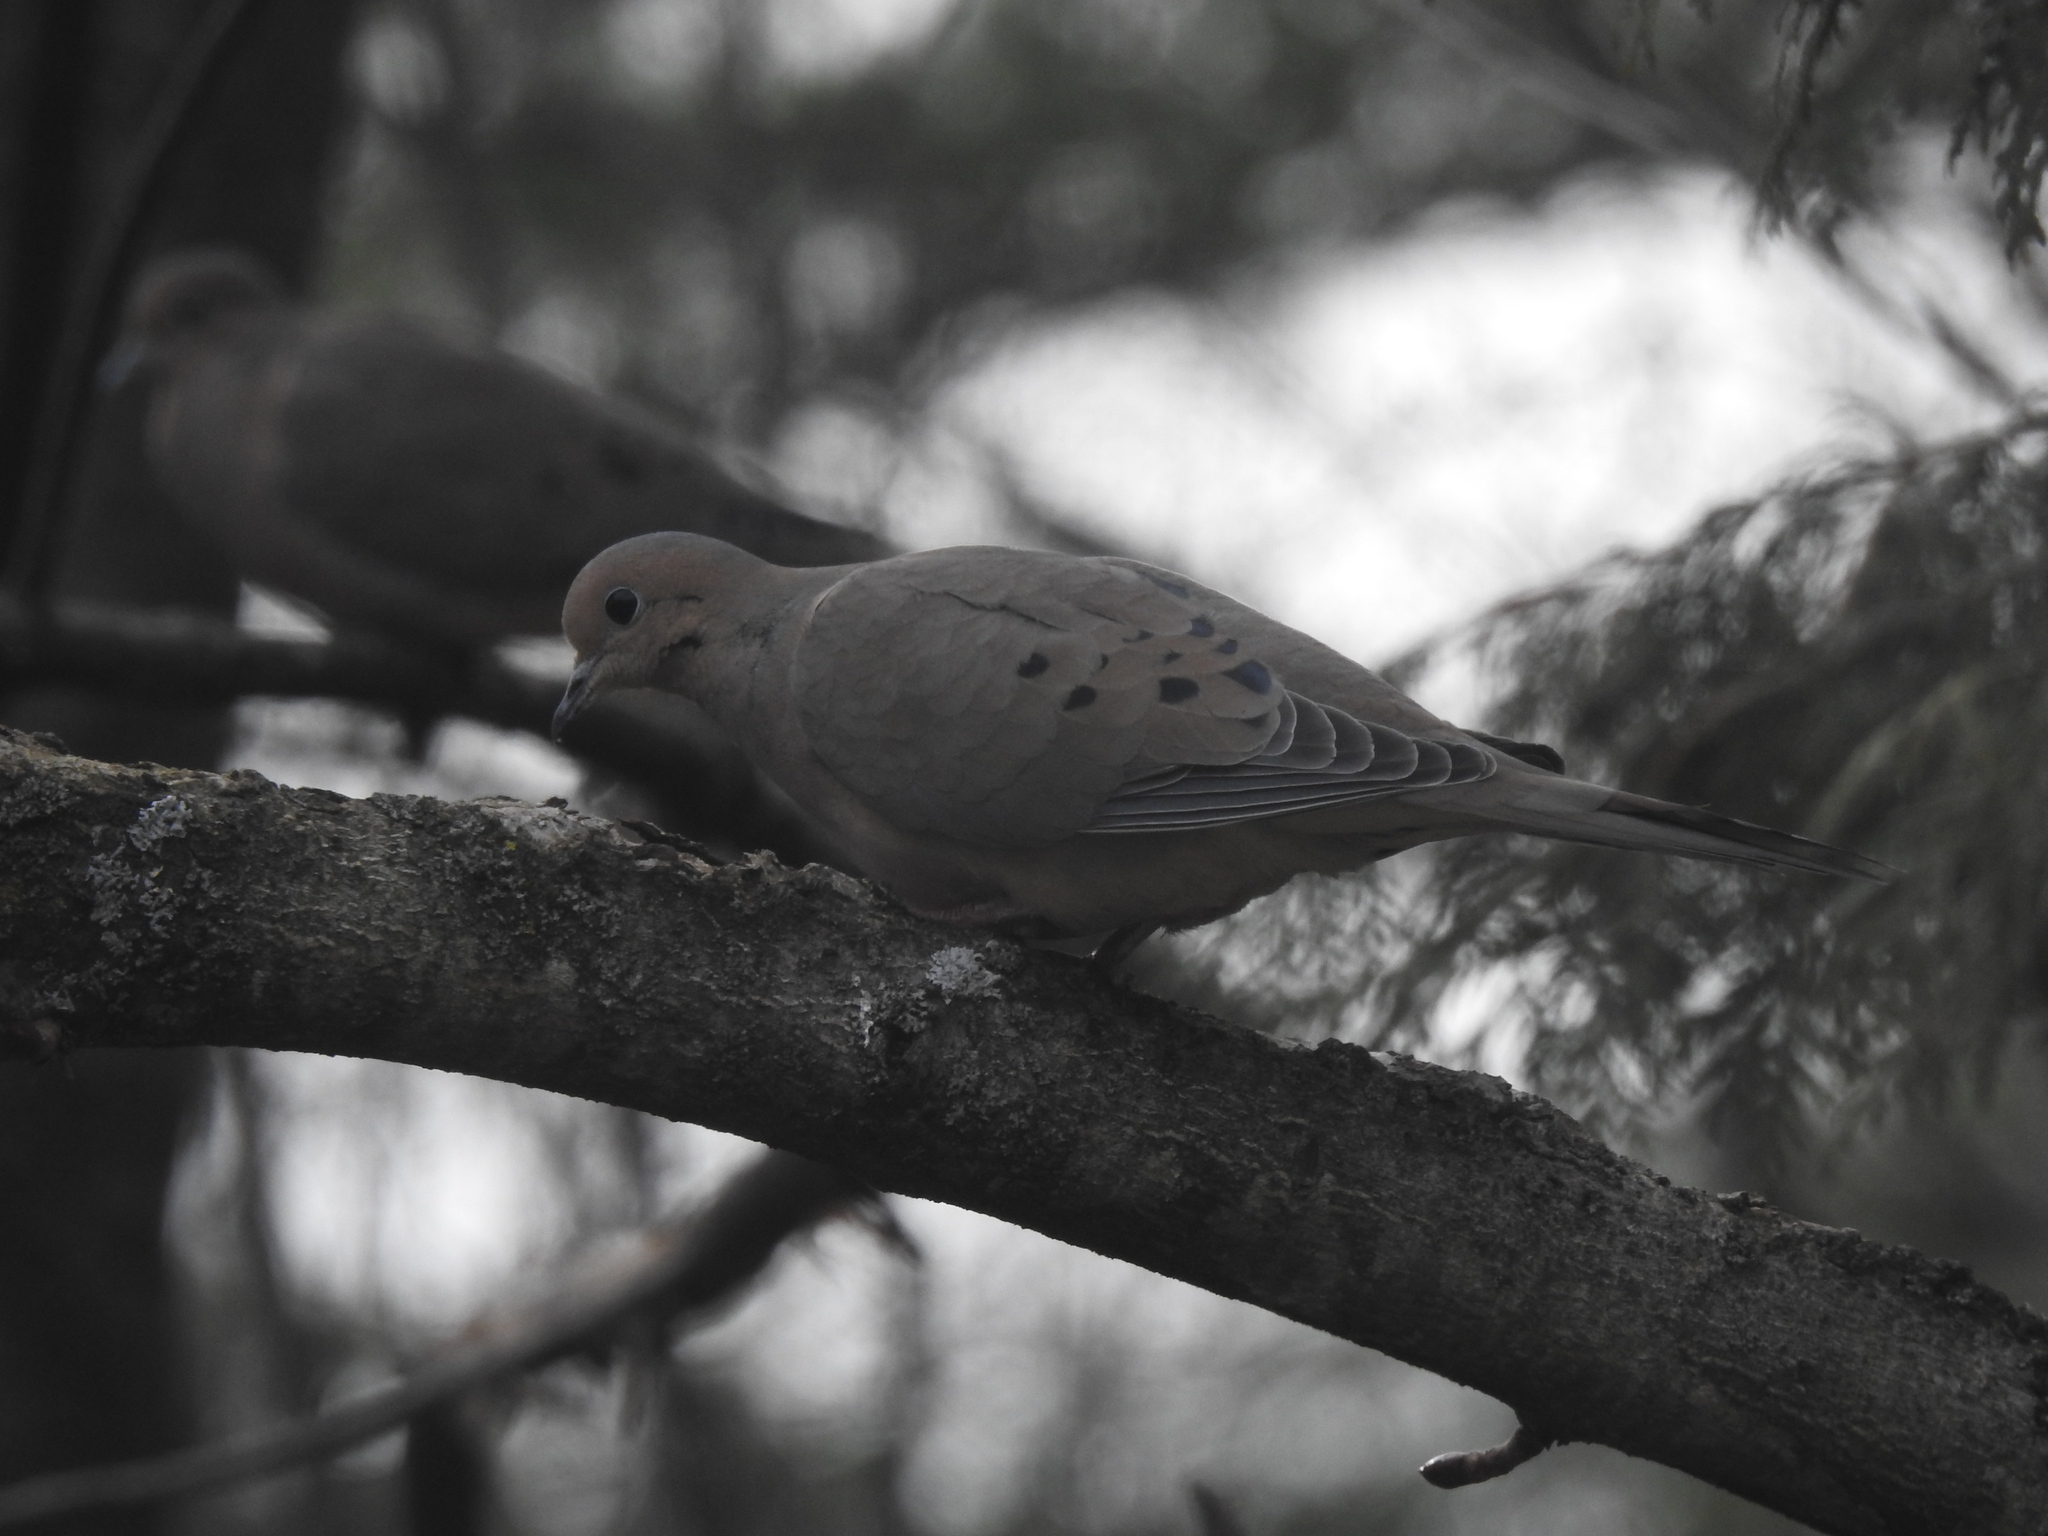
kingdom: Animalia
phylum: Chordata
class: Aves
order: Columbiformes
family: Columbidae
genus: Zenaida
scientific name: Zenaida macroura
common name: Mourning dove
